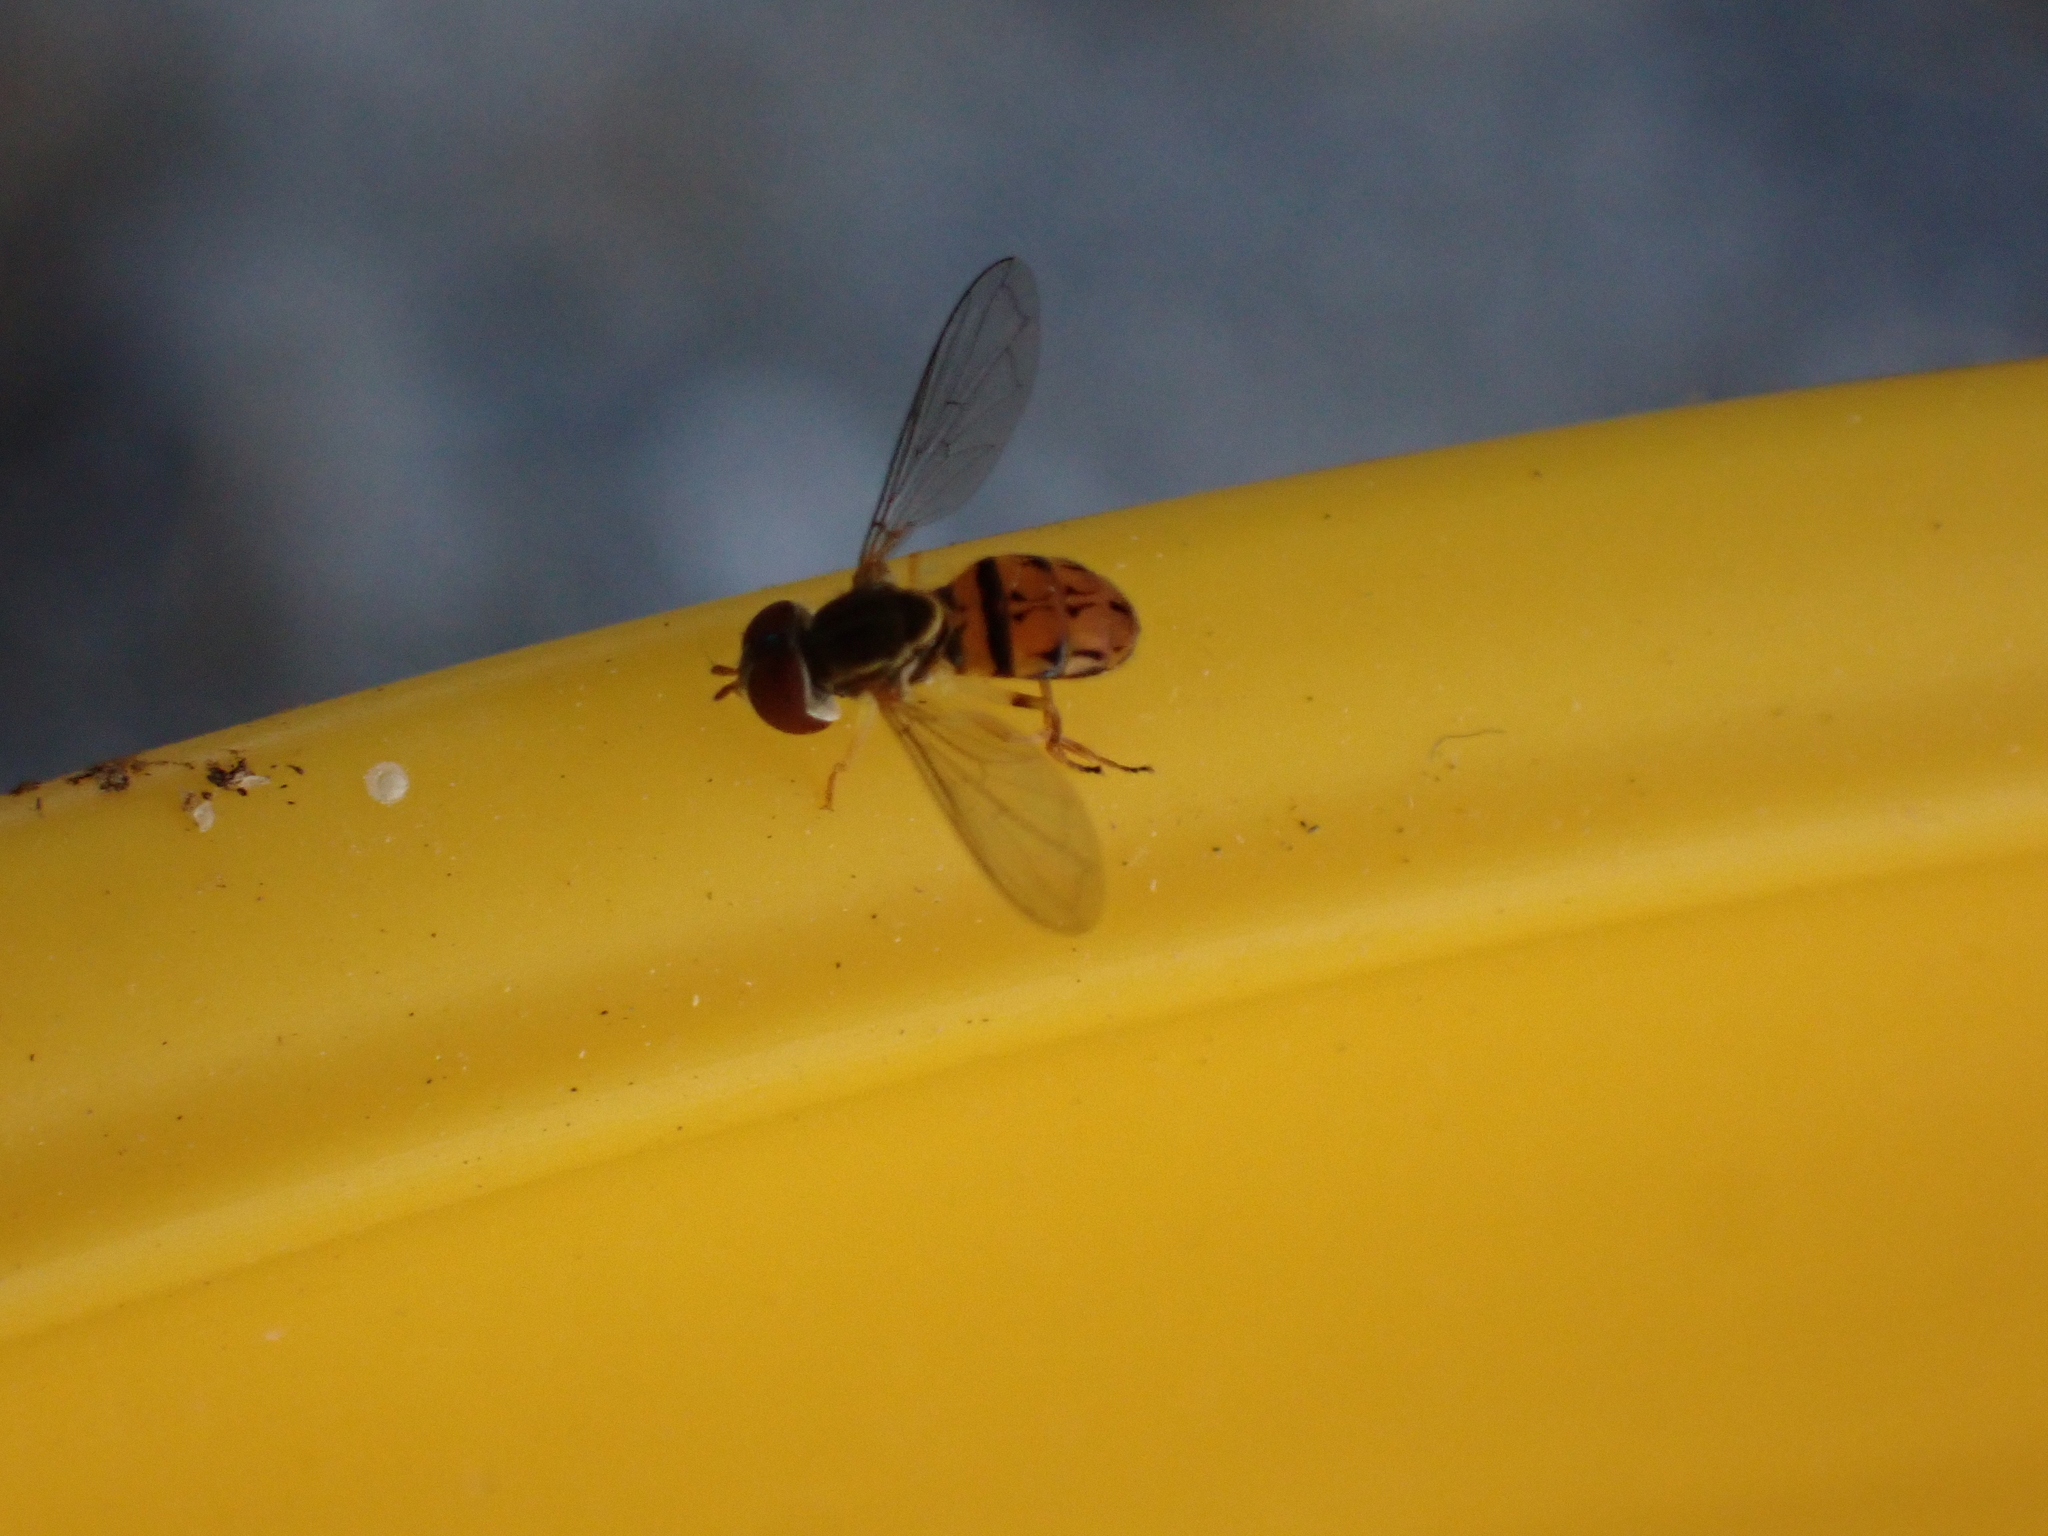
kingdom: Animalia
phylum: Arthropoda
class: Insecta
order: Diptera
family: Syrphidae
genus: Toxomerus
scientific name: Toxomerus boscii
